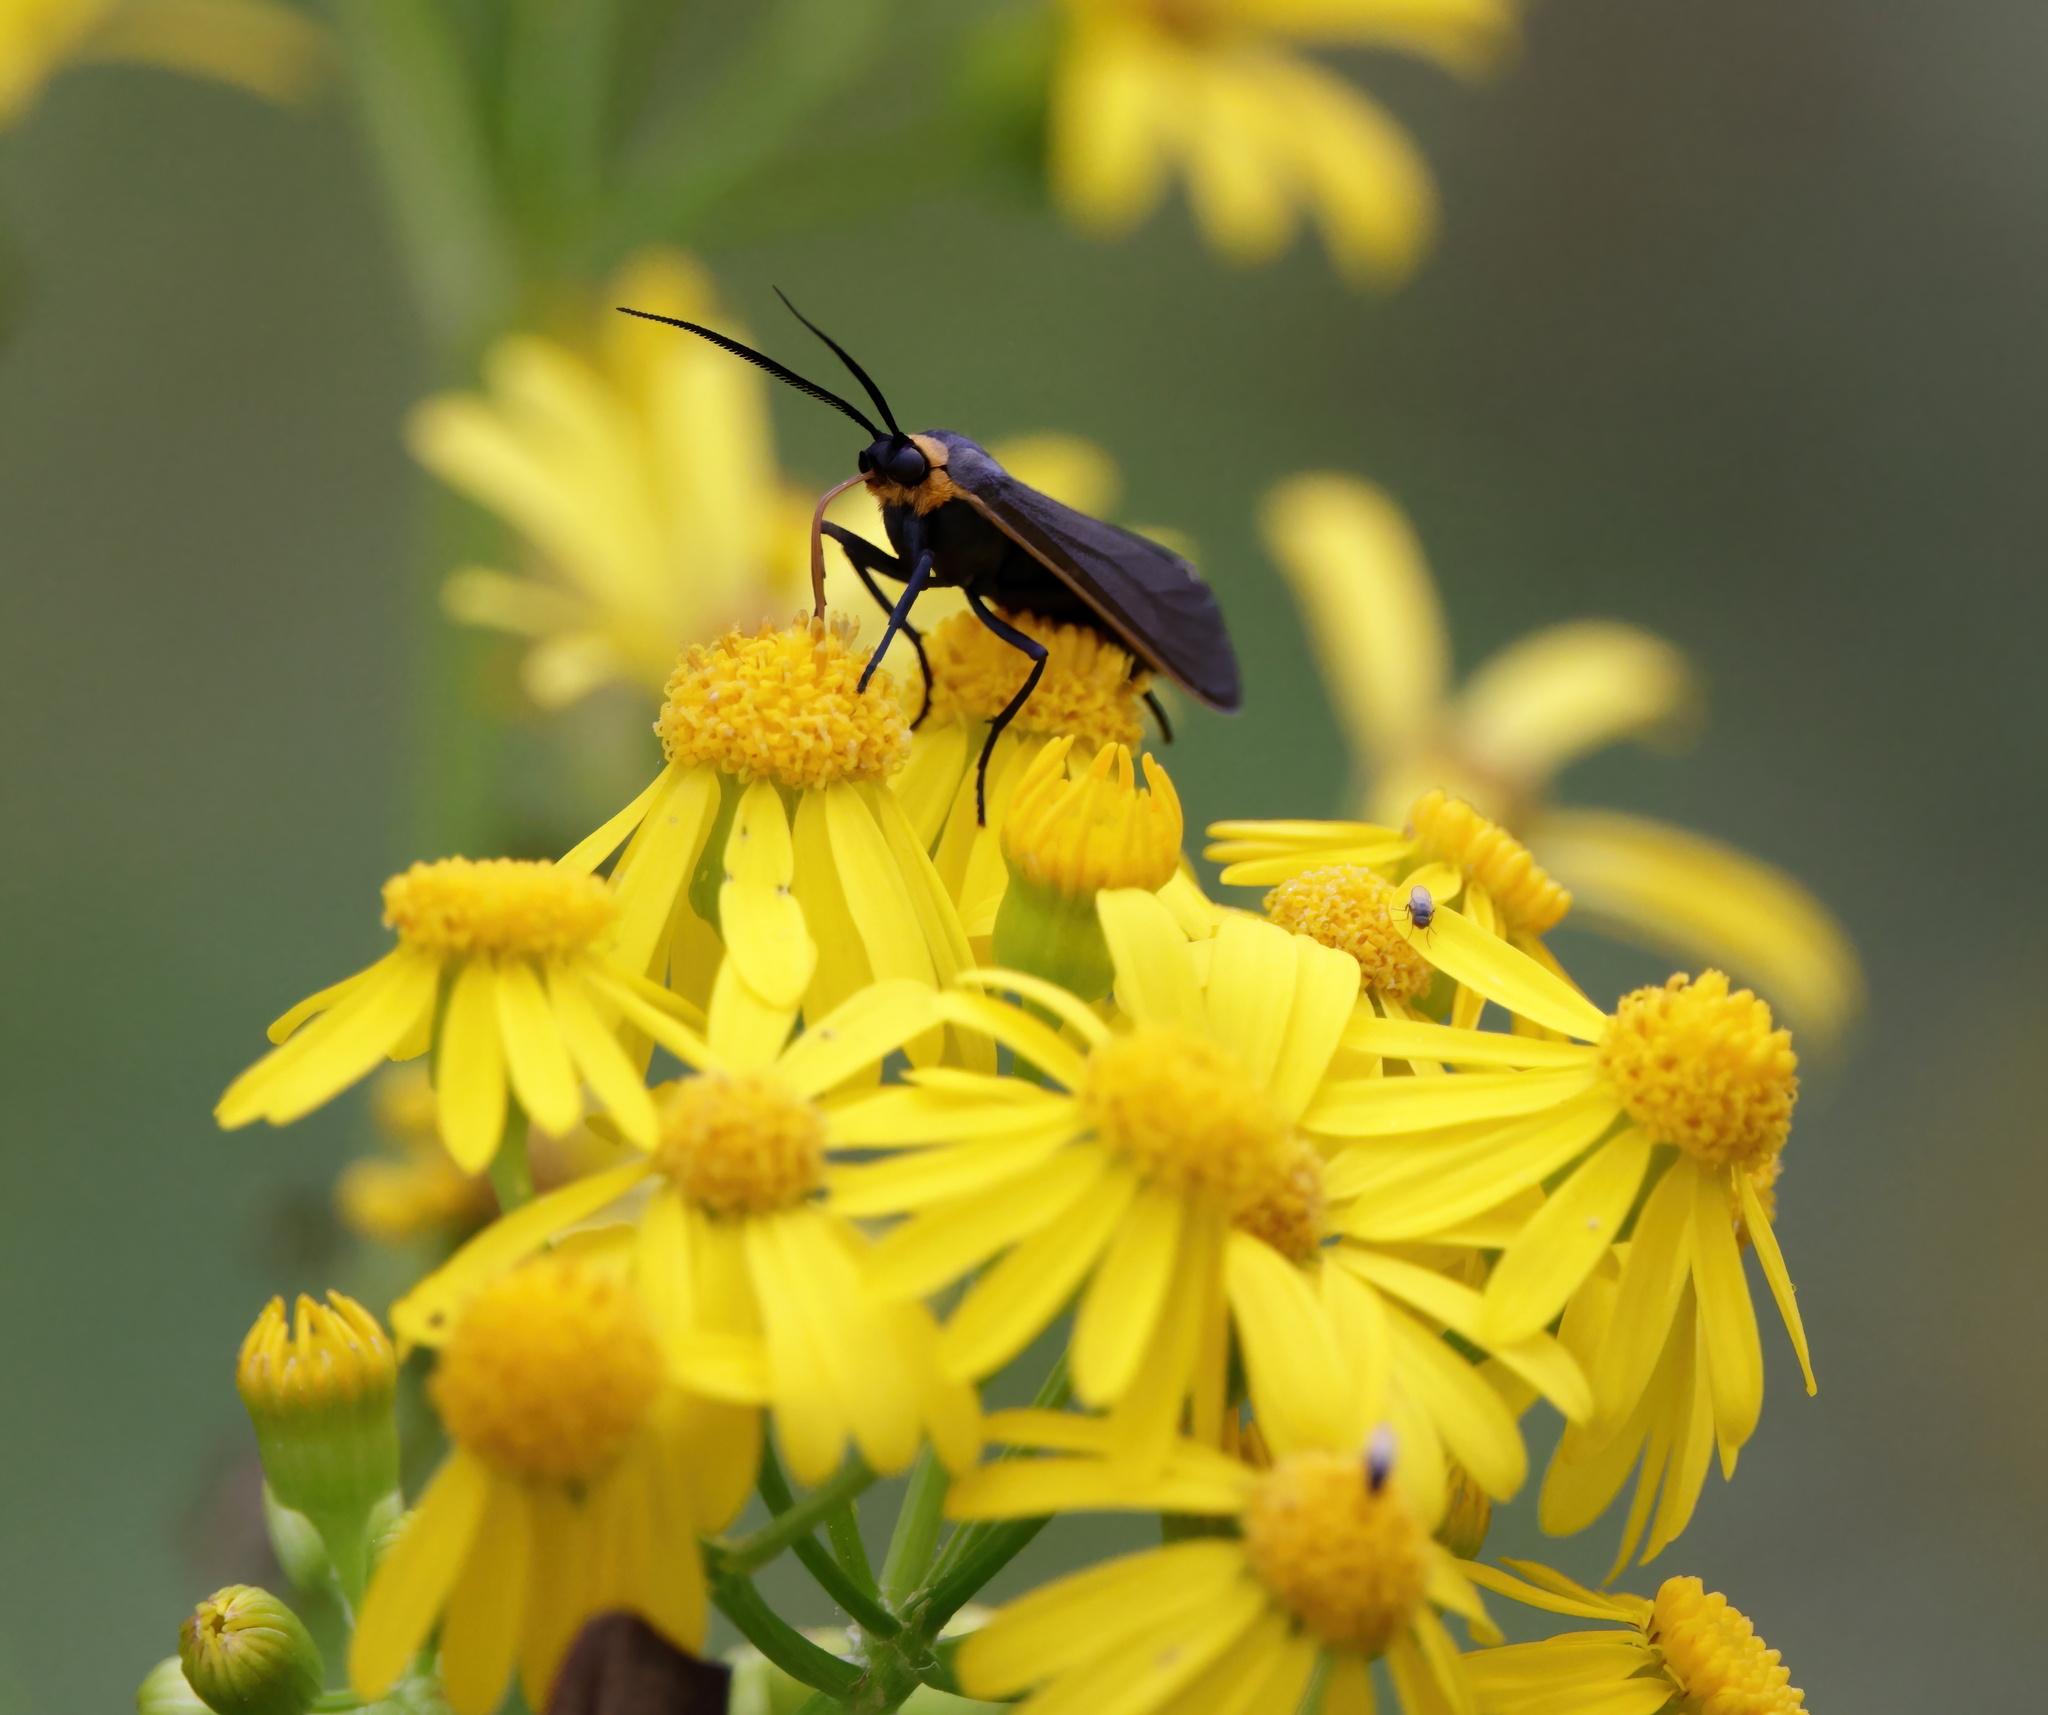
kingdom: Animalia
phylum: Arthropoda
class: Insecta
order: Lepidoptera
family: Erebidae
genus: Cisseps
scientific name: Cisseps fulvicollis
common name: Yellow-collared scape moth
